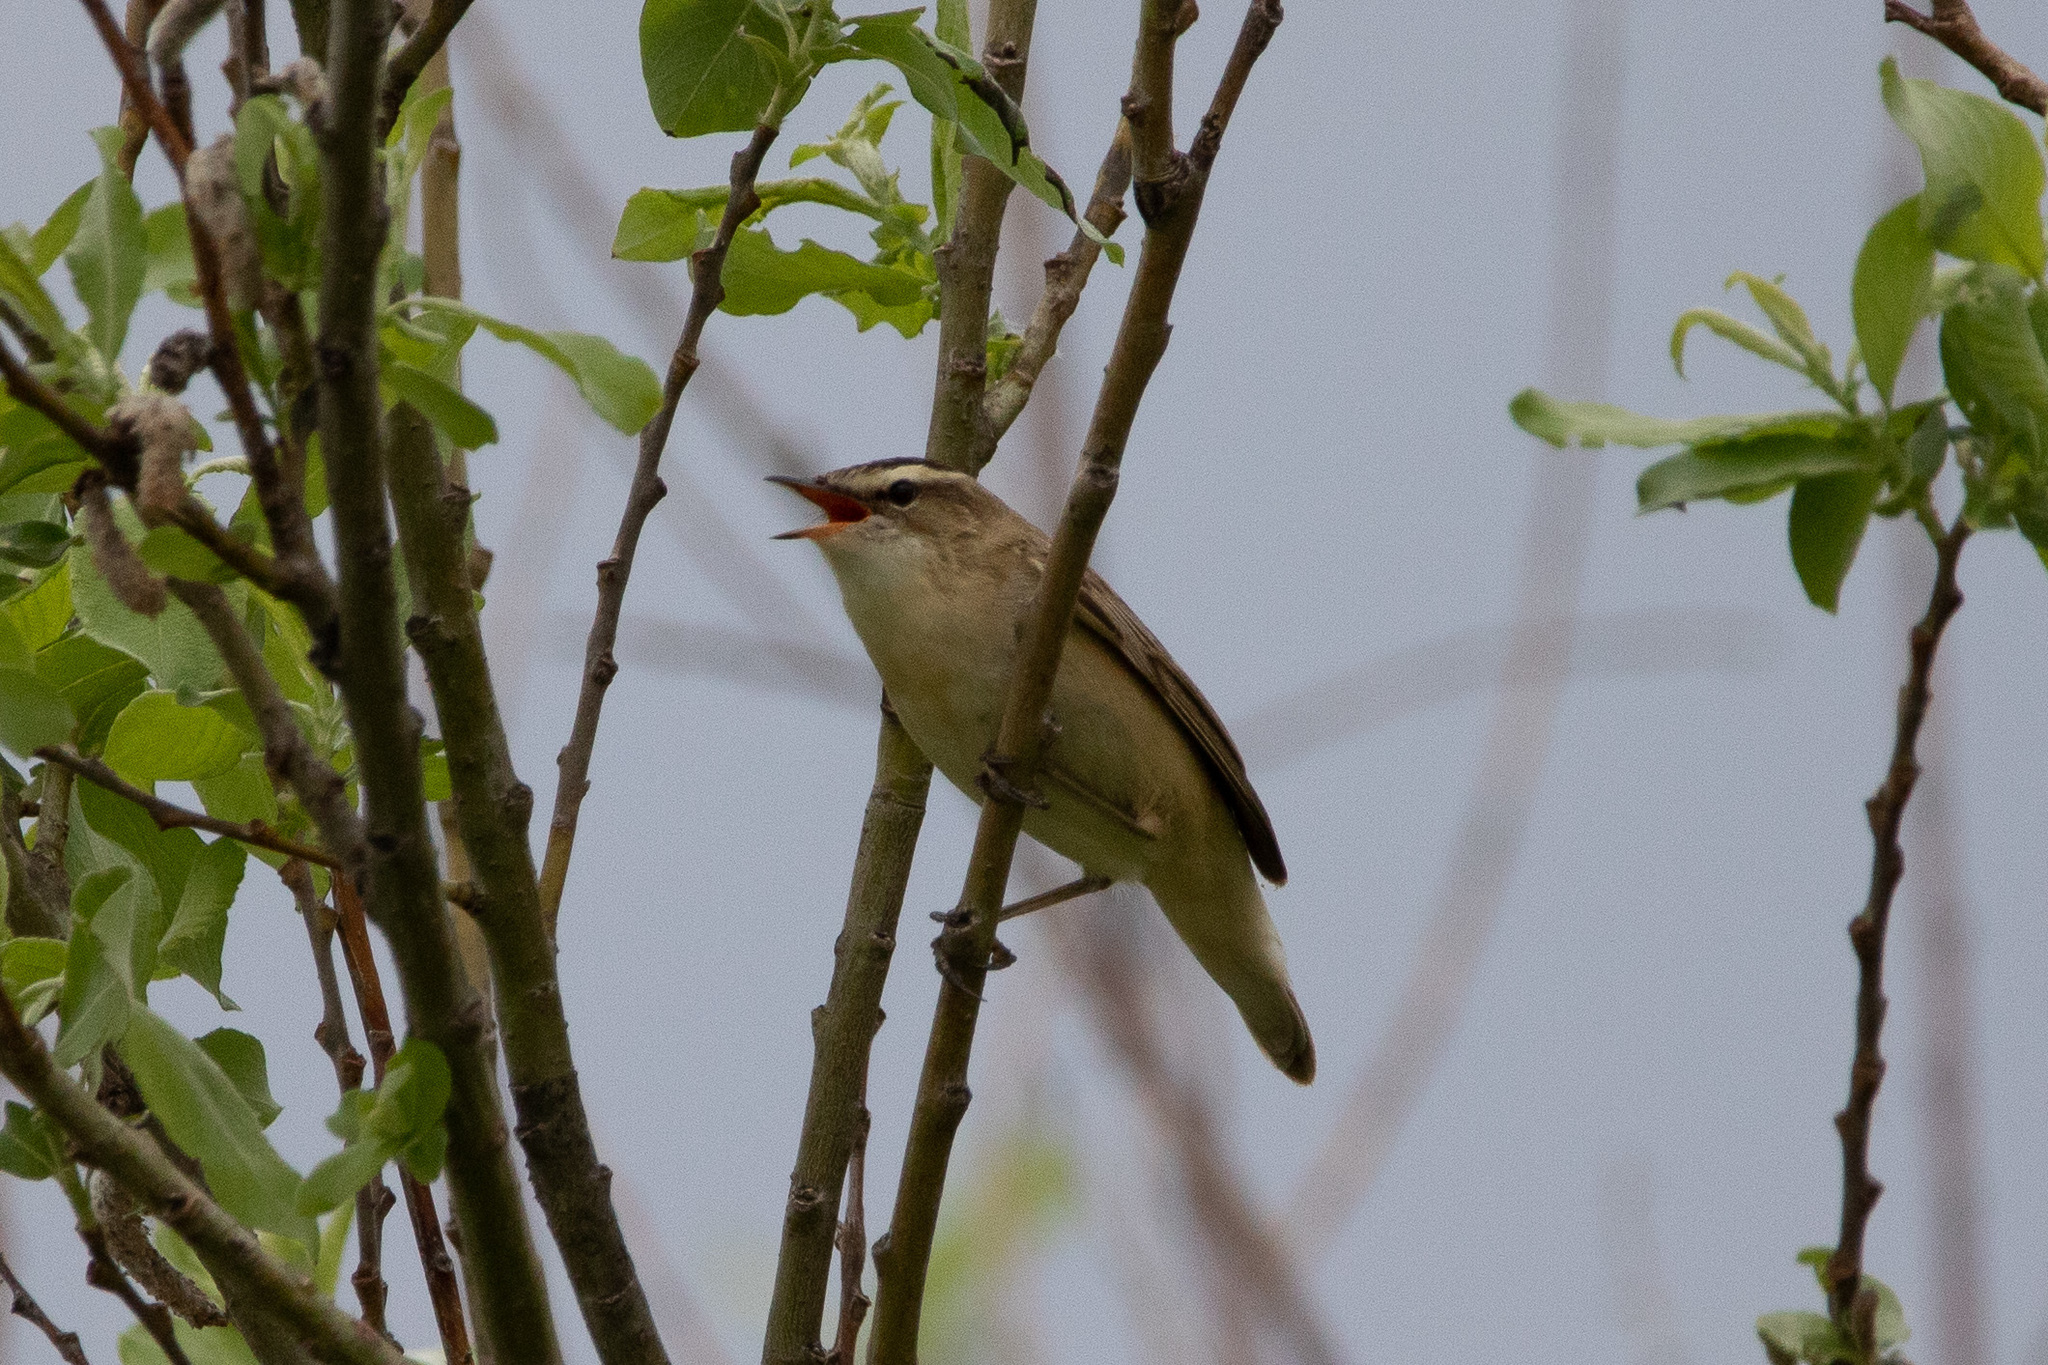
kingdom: Animalia
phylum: Chordata
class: Aves
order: Passeriformes
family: Acrocephalidae
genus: Acrocephalus
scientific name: Acrocephalus schoenobaenus
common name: Sedge warbler
